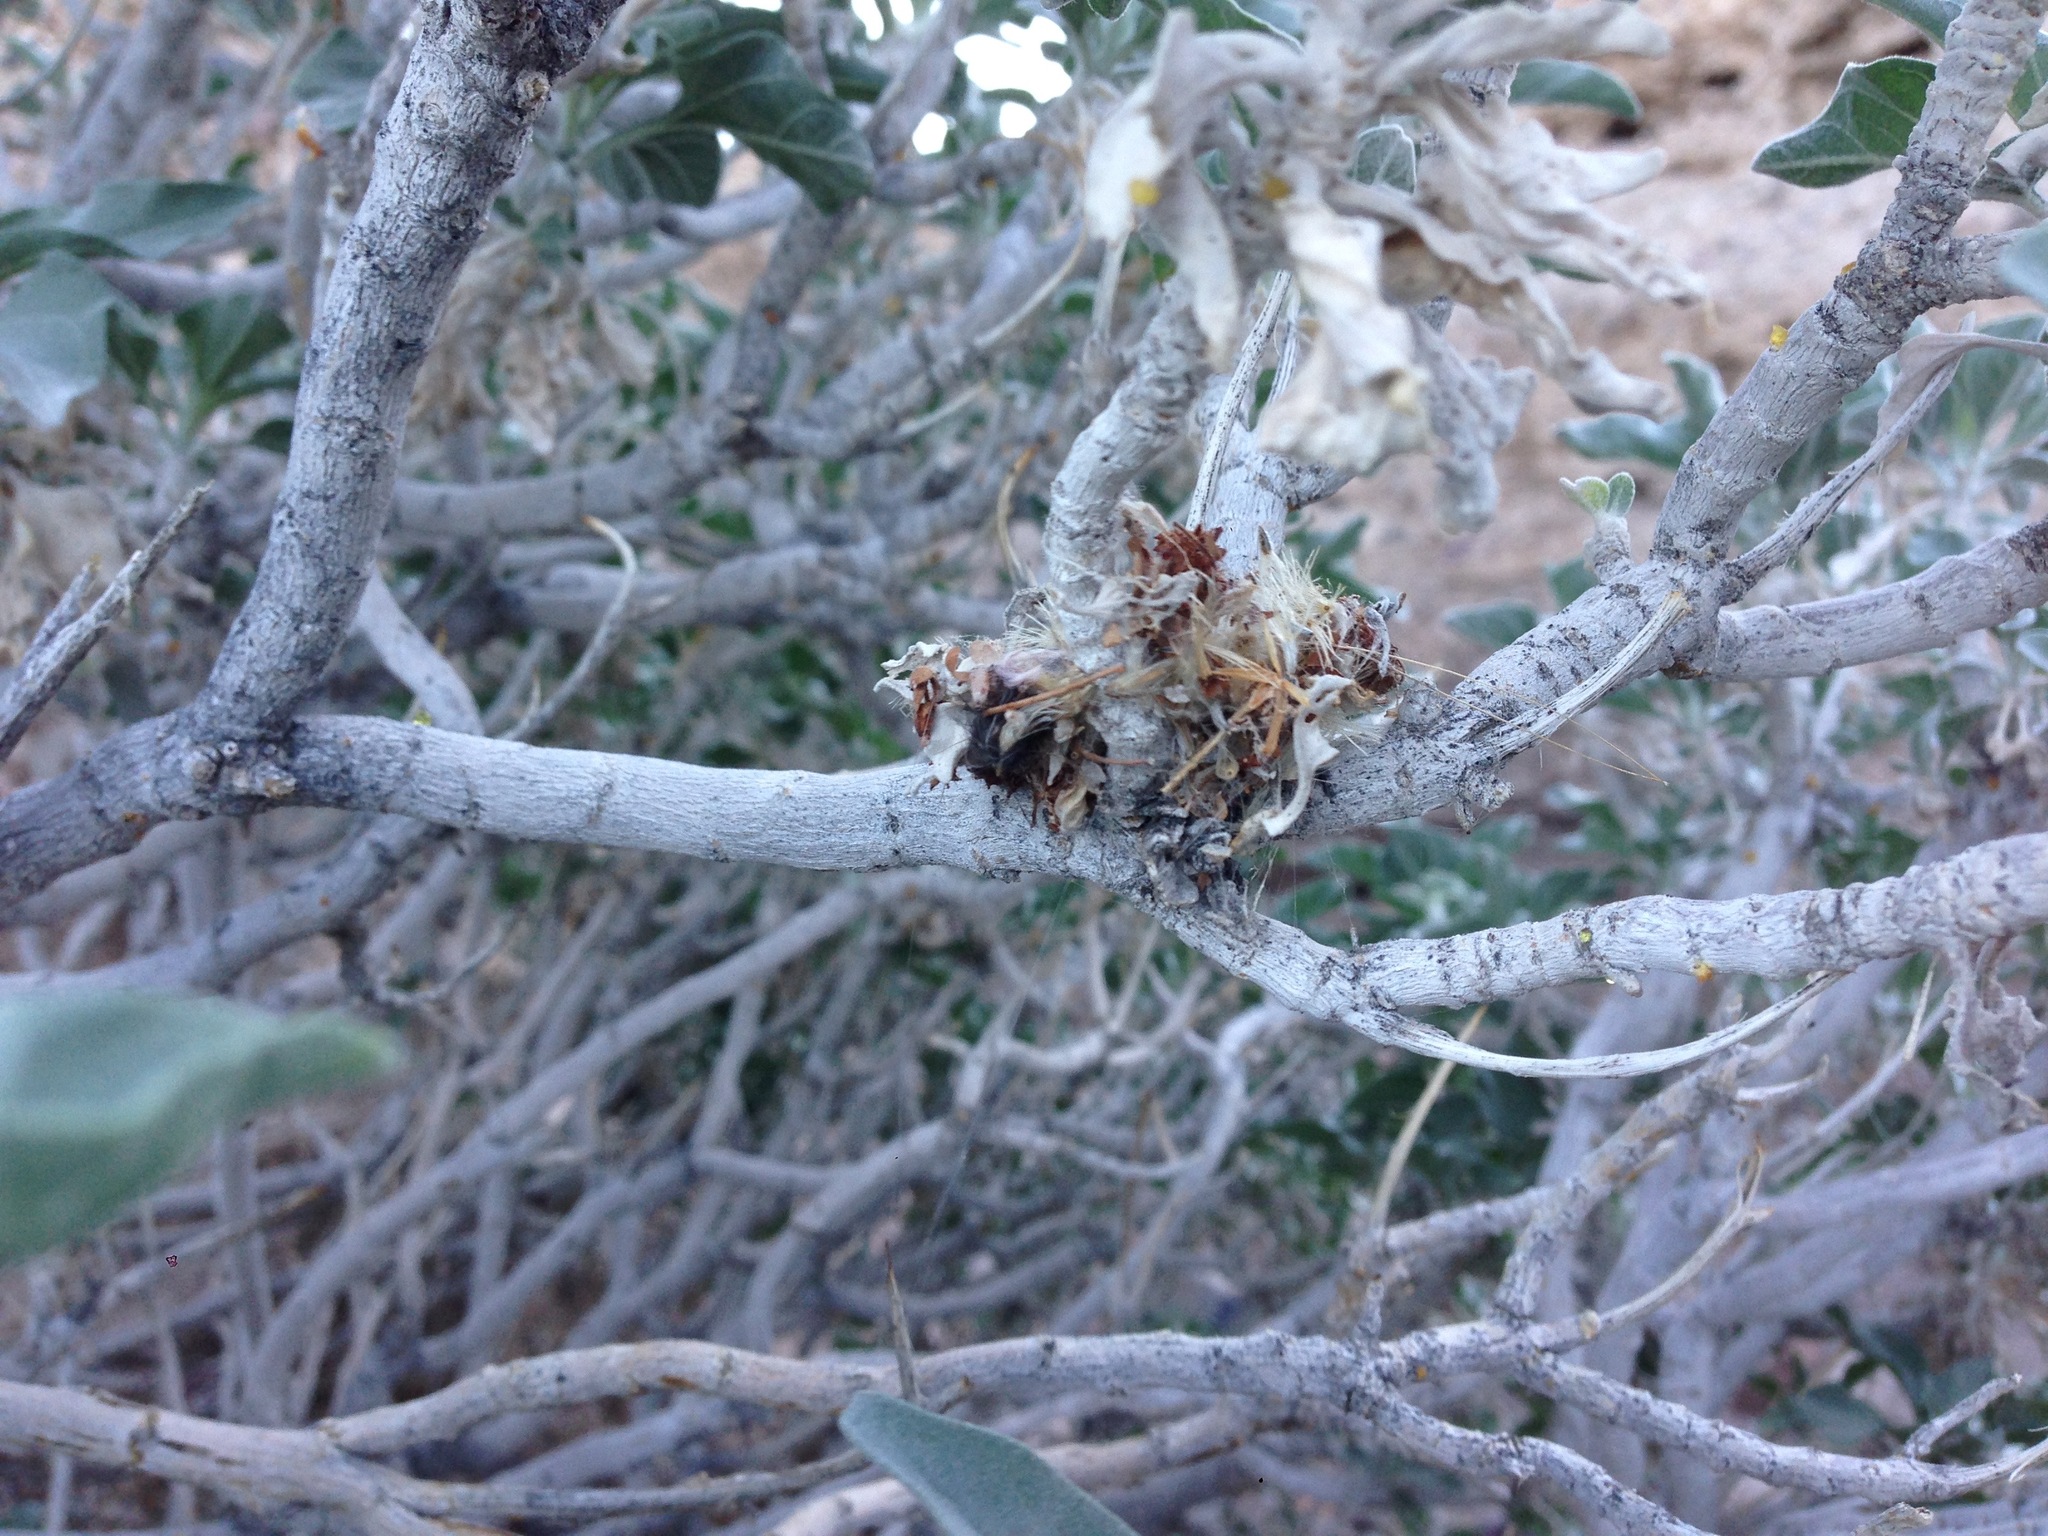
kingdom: Animalia
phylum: Chordata
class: Aves
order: Apodiformes
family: Trochilidae
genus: Calypte
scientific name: Calypte costae
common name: Costa's hummingbird
